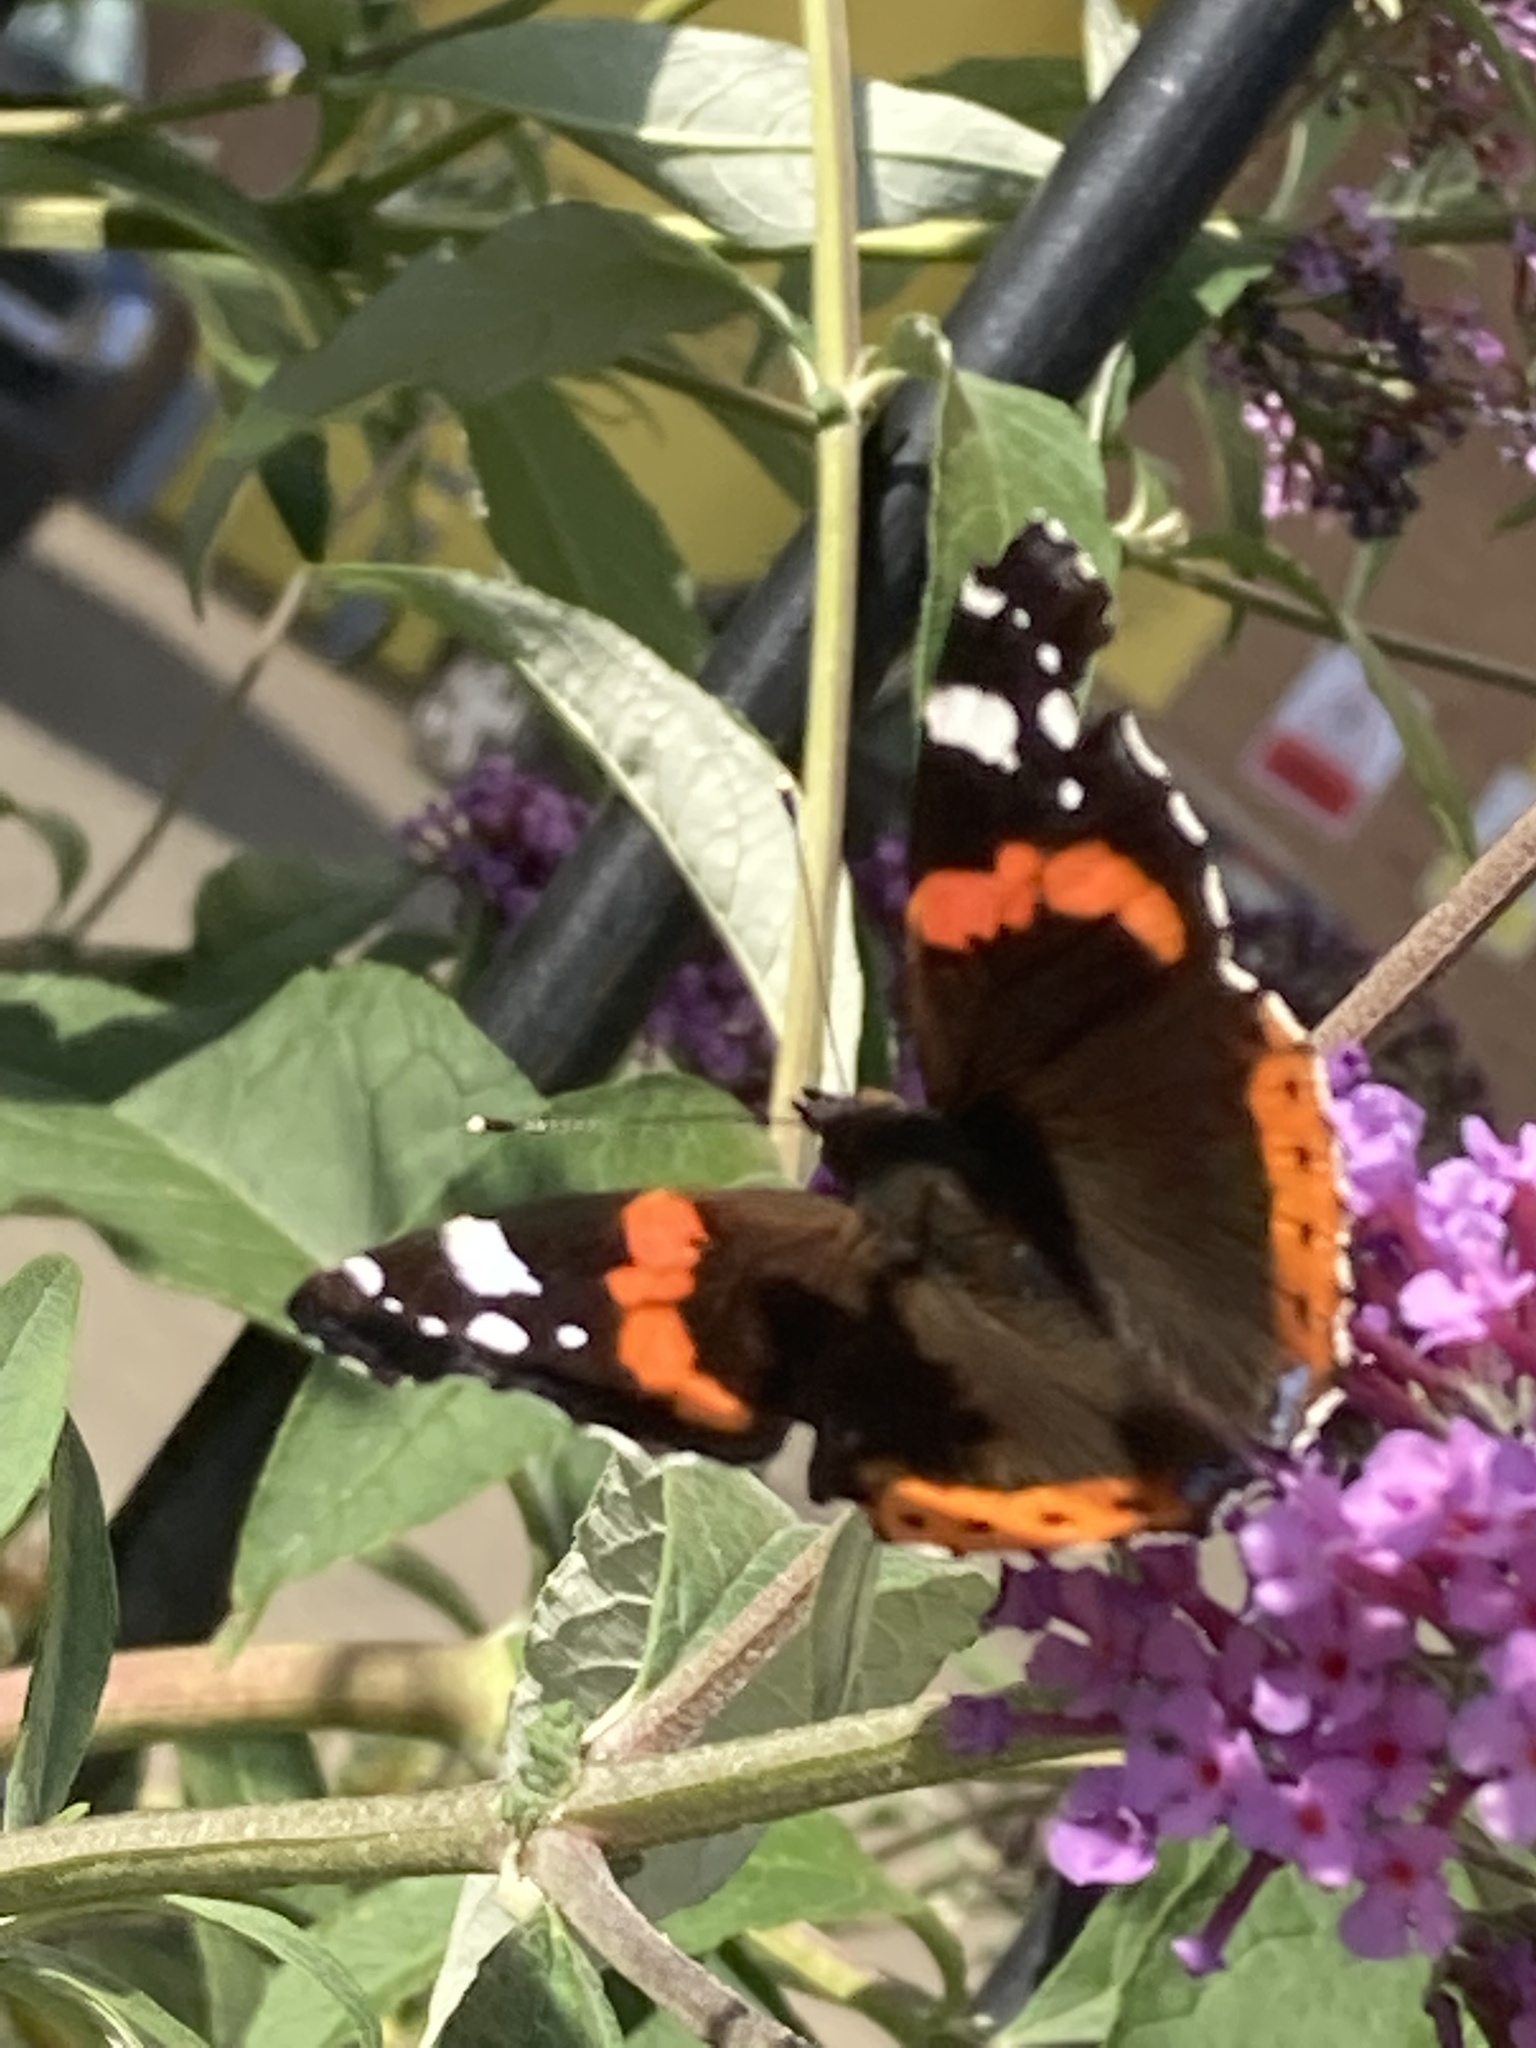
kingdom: Animalia
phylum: Arthropoda
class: Insecta
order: Lepidoptera
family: Nymphalidae
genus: Vanessa
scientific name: Vanessa atalanta
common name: Red admiral
